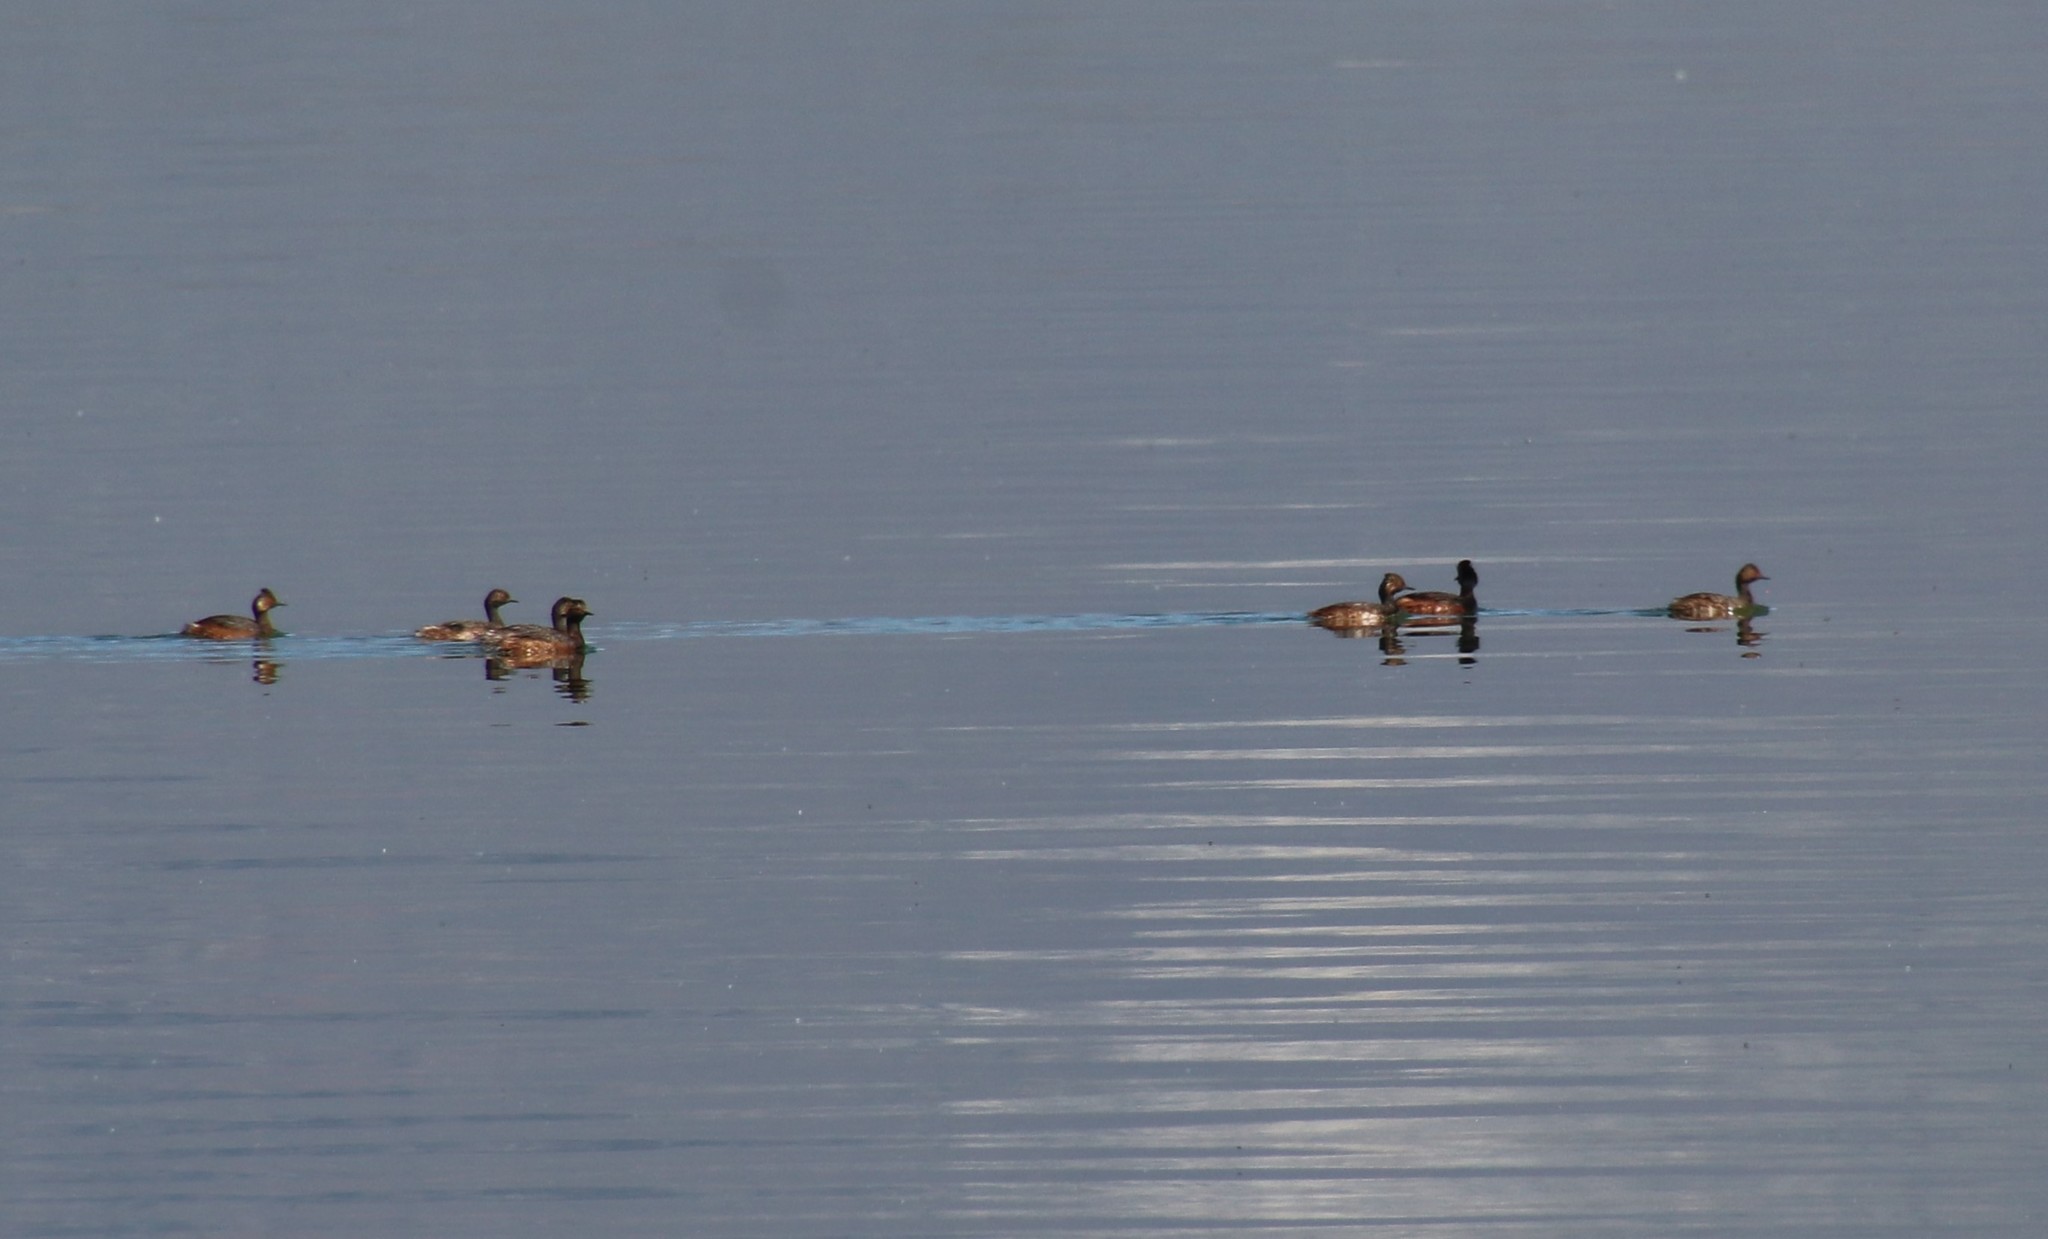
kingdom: Animalia
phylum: Chordata
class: Aves
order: Podicipediformes
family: Podicipedidae
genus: Podiceps
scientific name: Podiceps nigricollis
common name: Black-necked grebe
